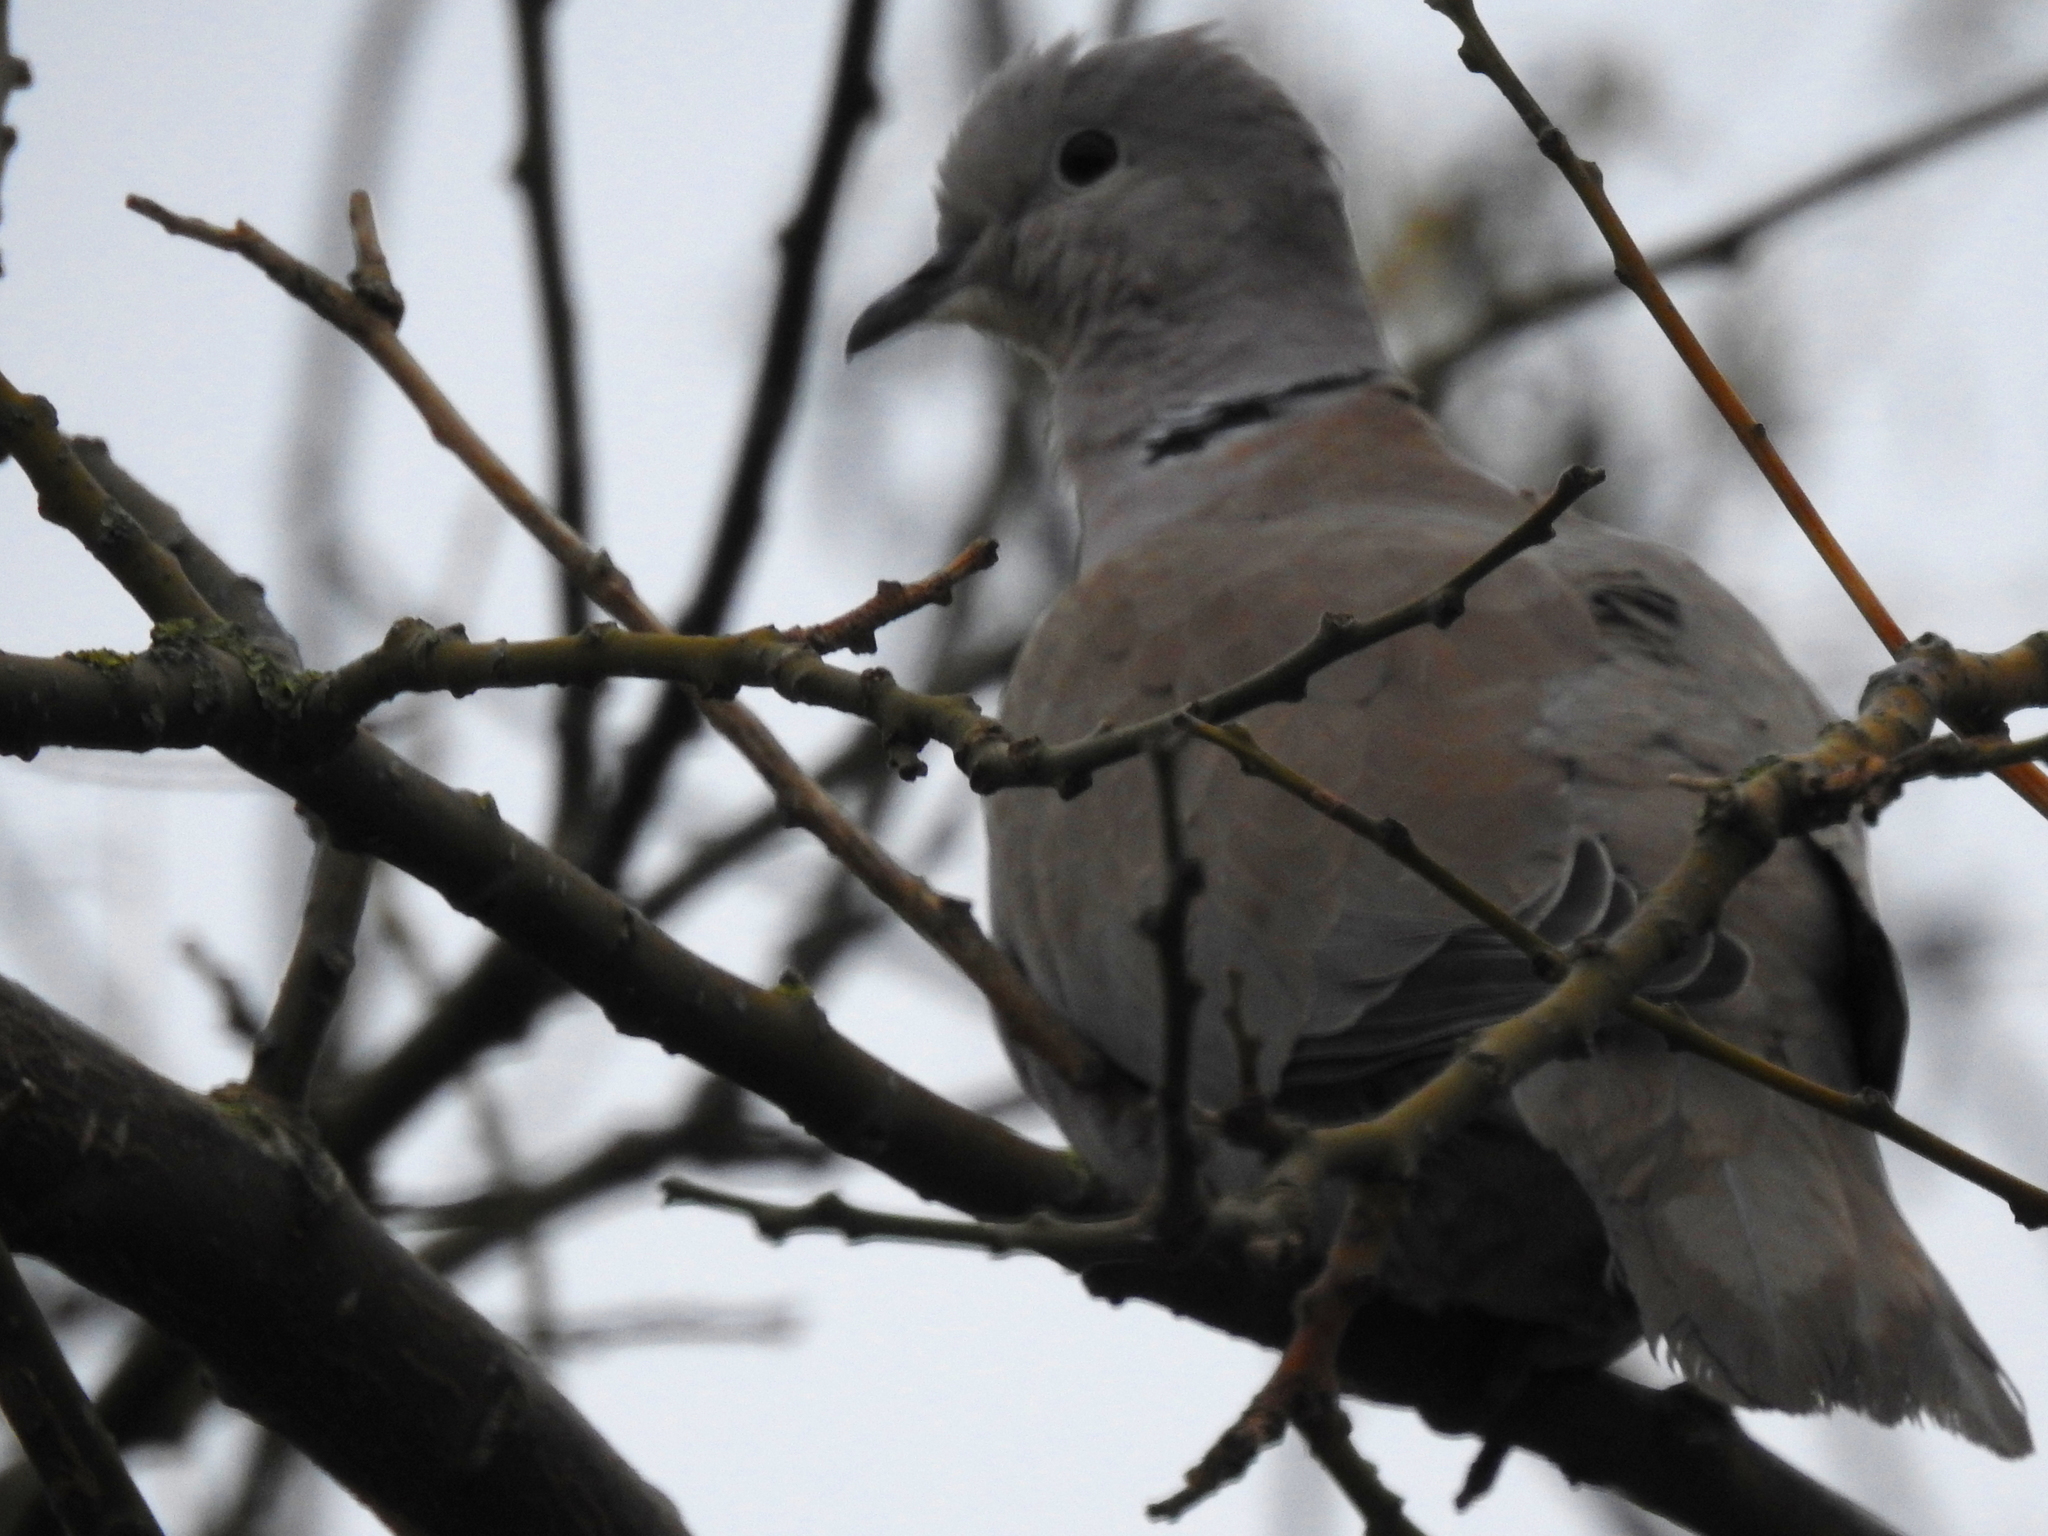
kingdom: Animalia
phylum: Chordata
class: Aves
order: Columbiformes
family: Columbidae
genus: Streptopelia
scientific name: Streptopelia decaocto
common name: Eurasian collared dove
